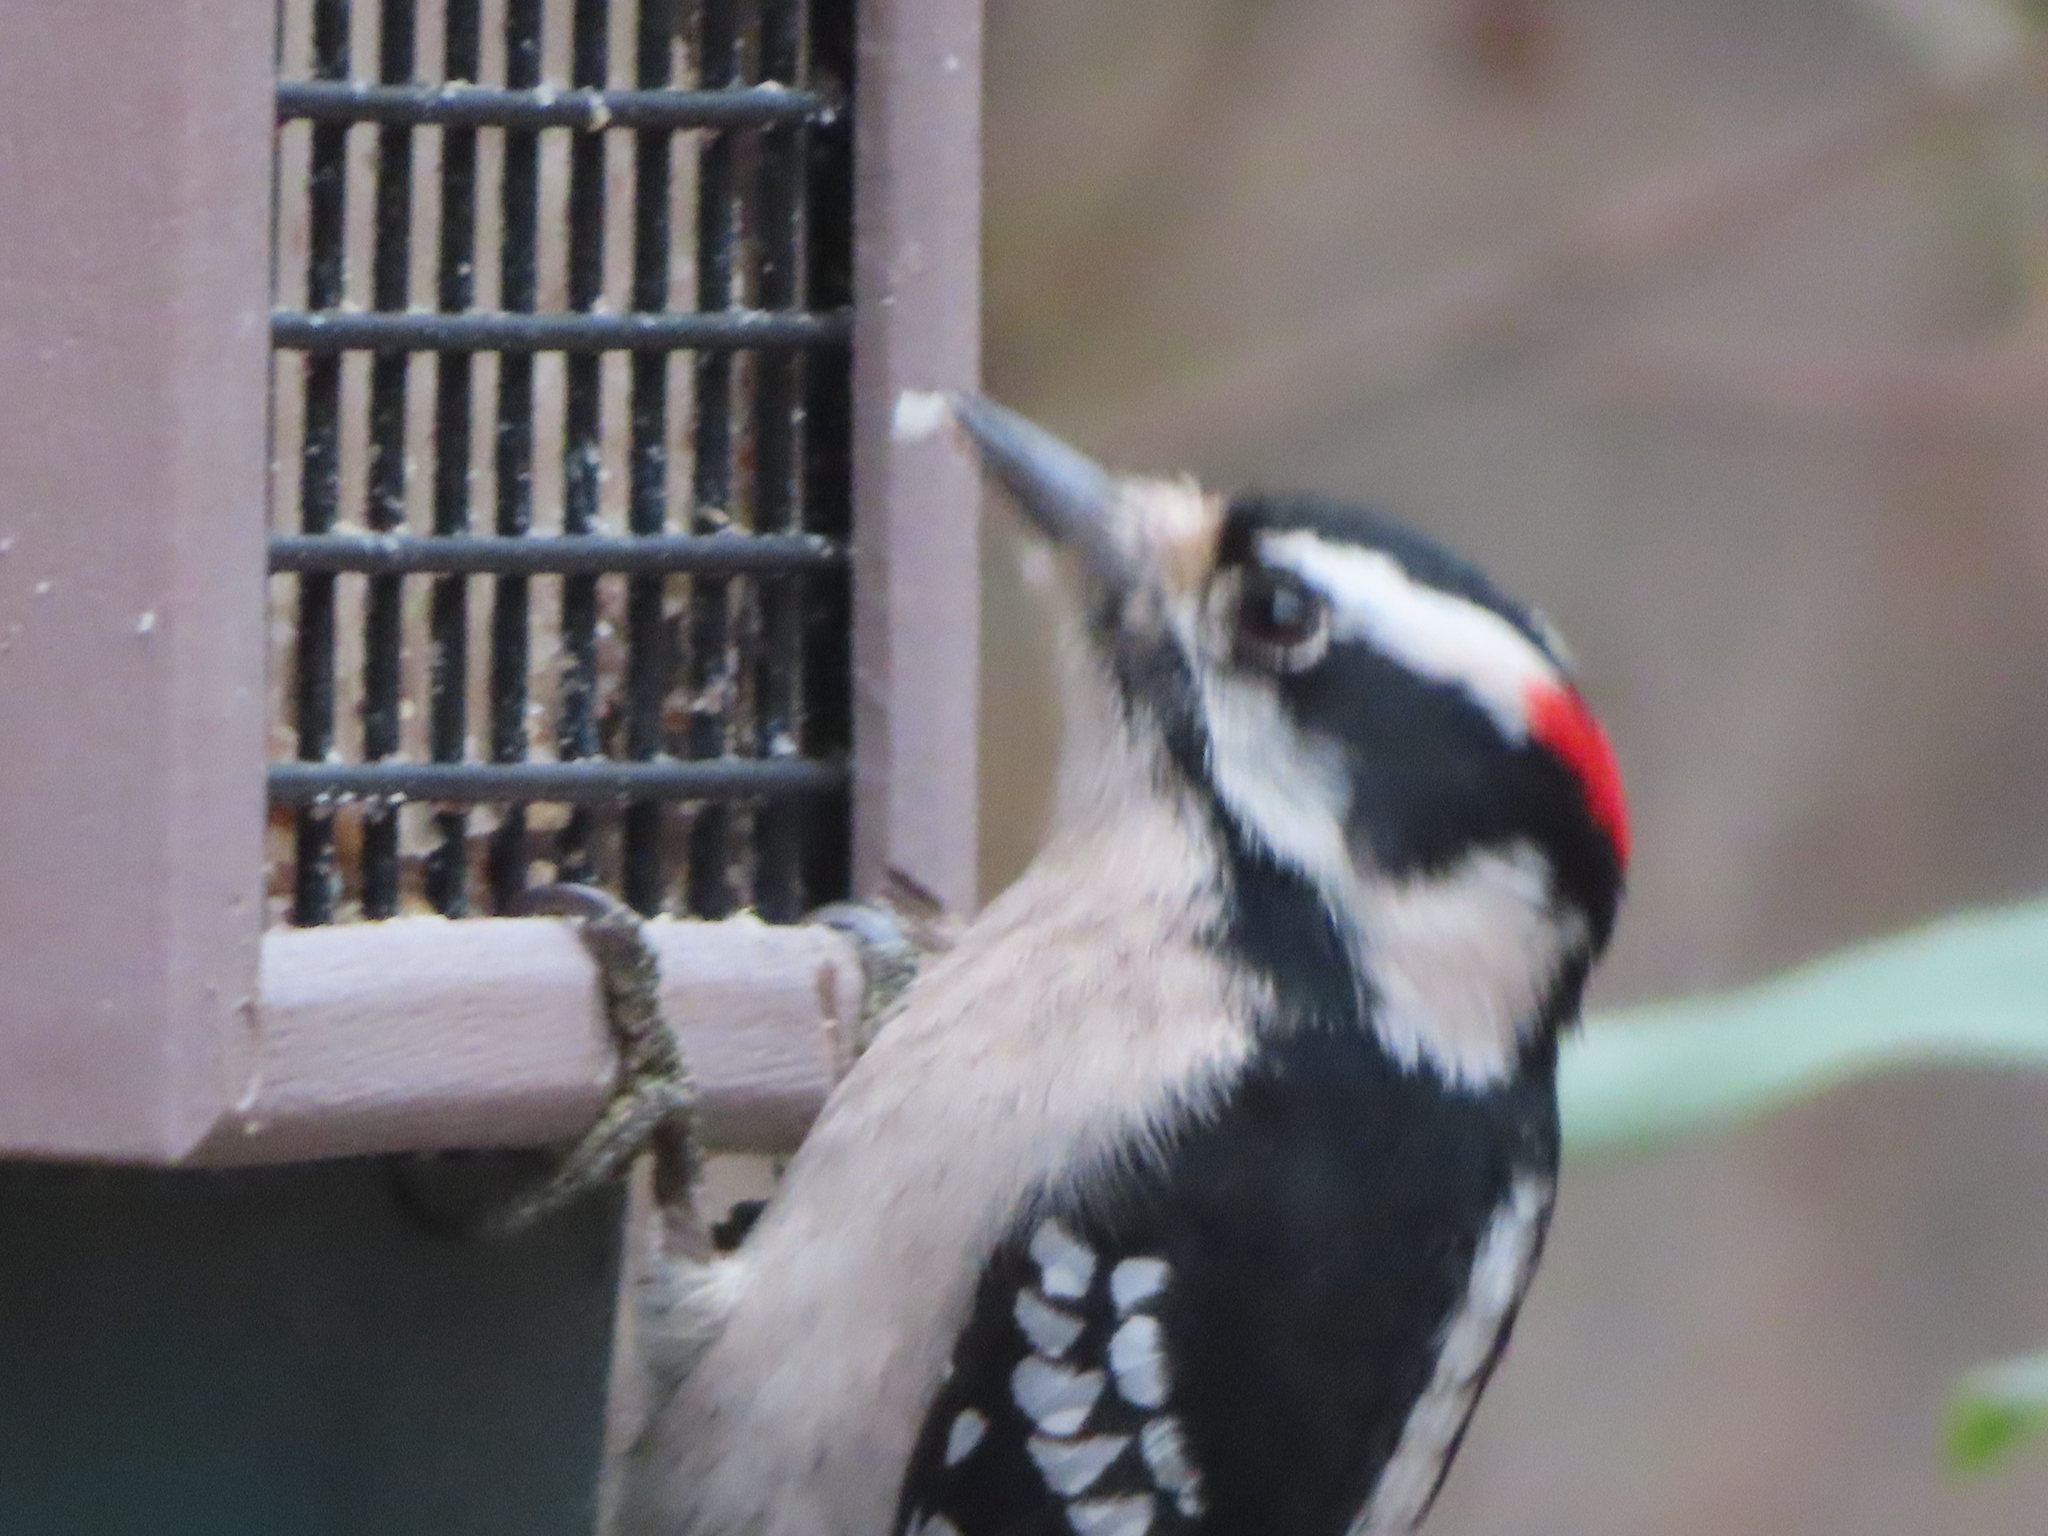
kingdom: Animalia
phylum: Chordata
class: Aves
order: Piciformes
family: Picidae
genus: Dryobates
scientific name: Dryobates pubescens
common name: Downy woodpecker
